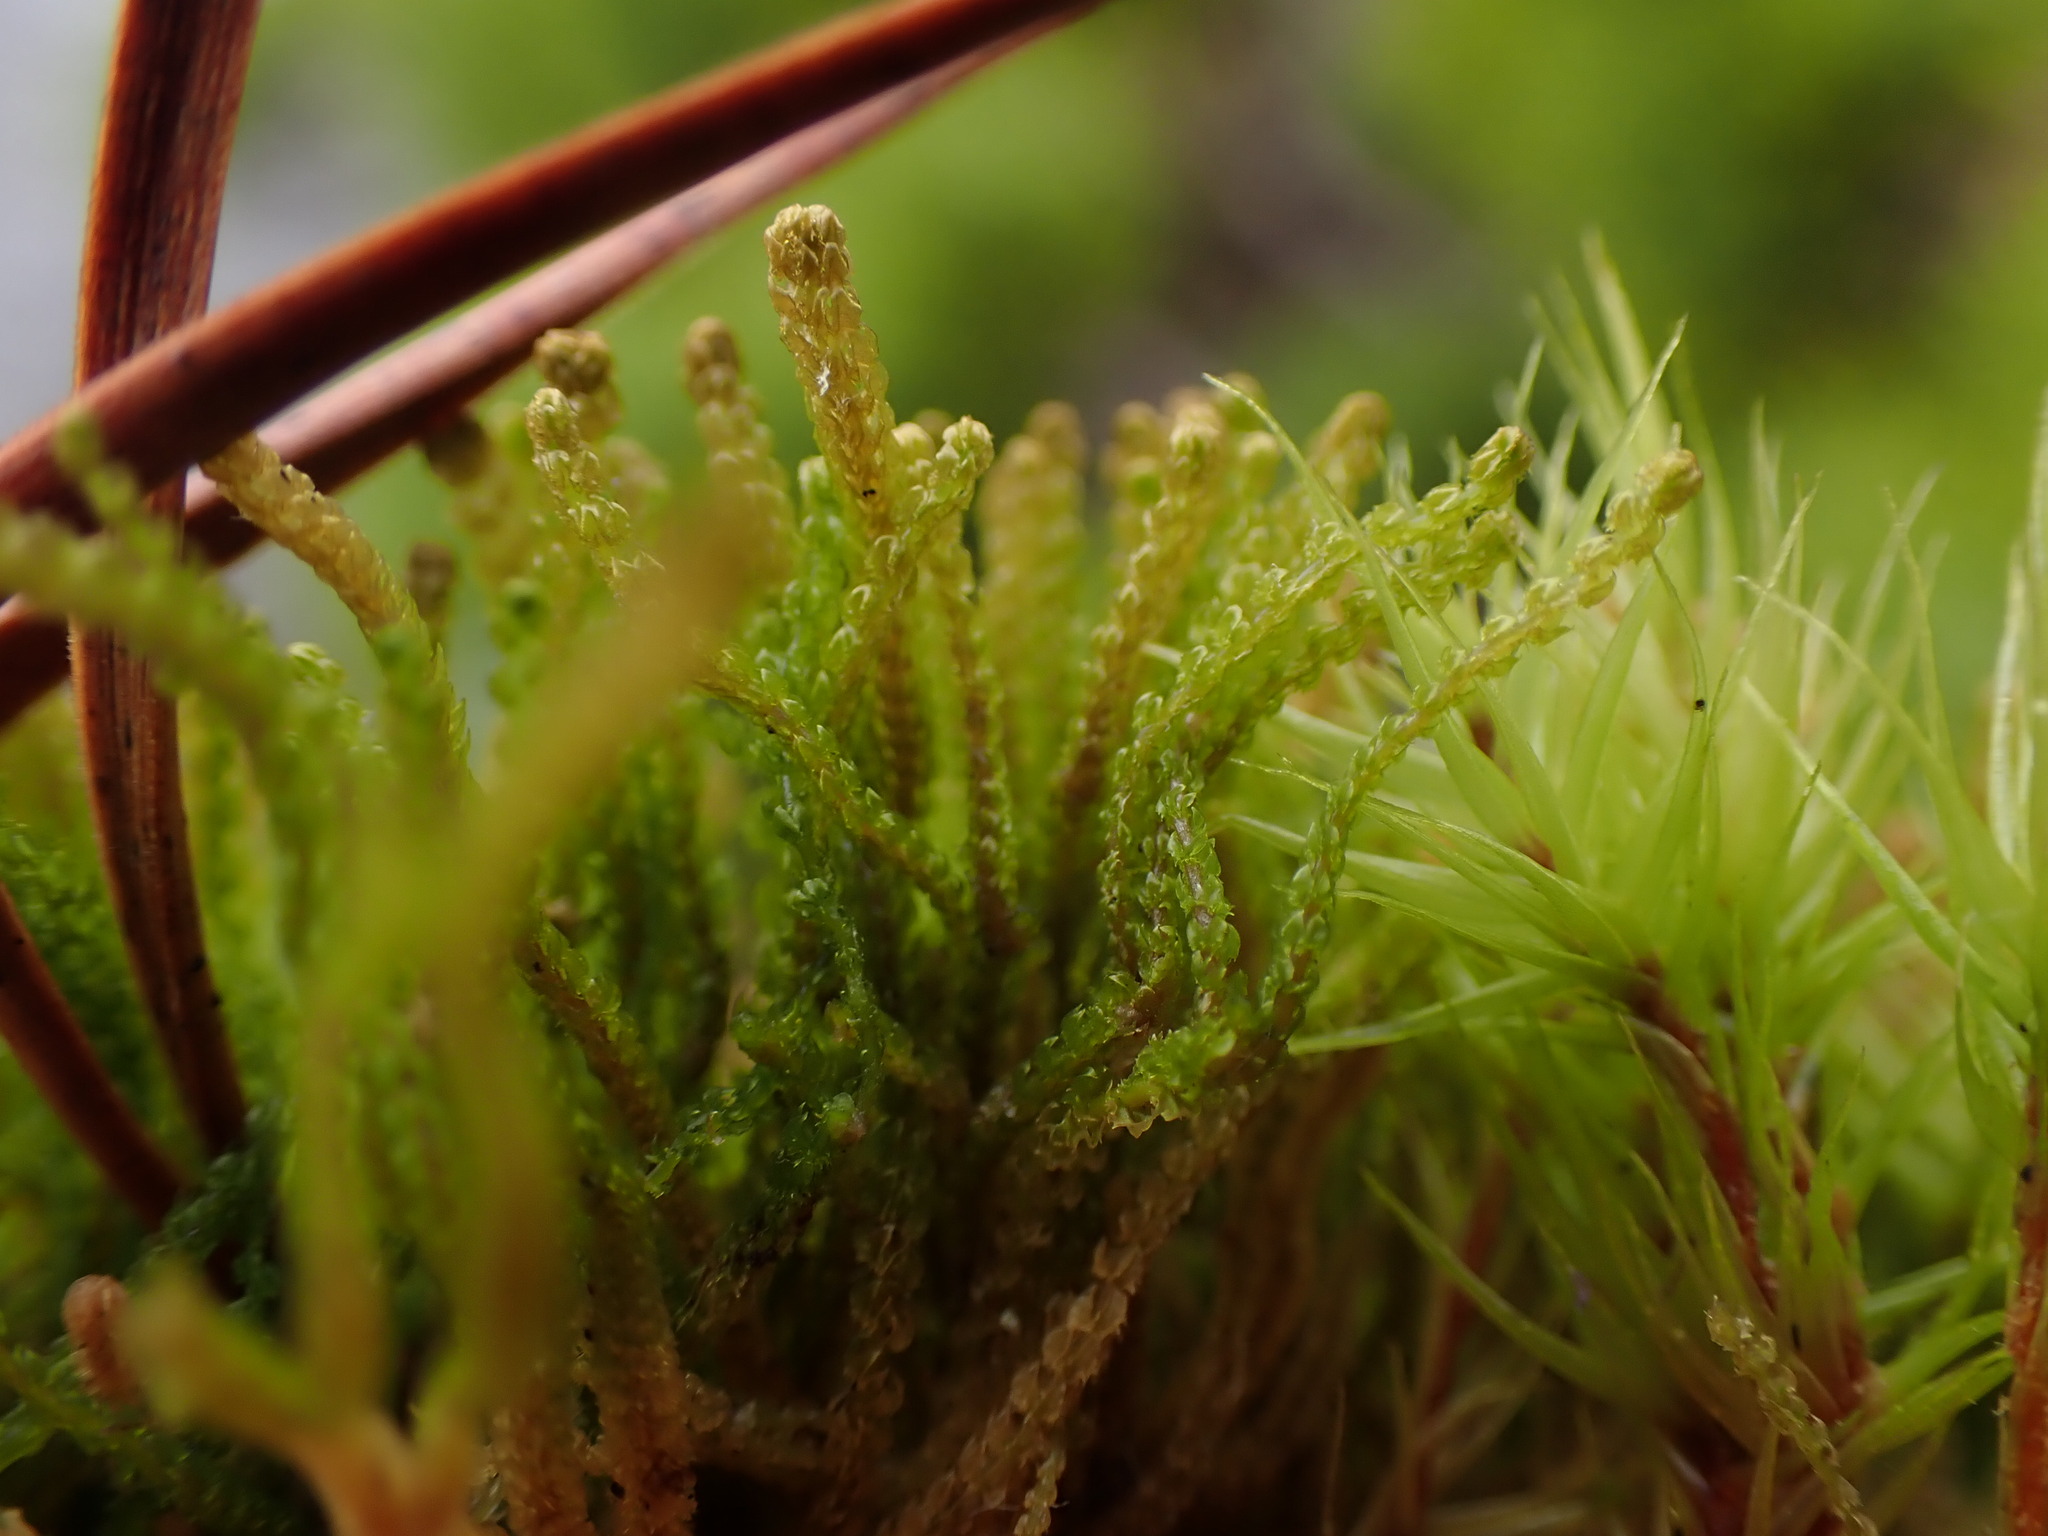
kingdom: Plantae
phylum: Marchantiophyta
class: Jungermanniopsida
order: Jungermanniales
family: Anastrophyllaceae
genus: Tetralophozia
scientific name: Tetralophozia setiformis
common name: Monster pawwort
